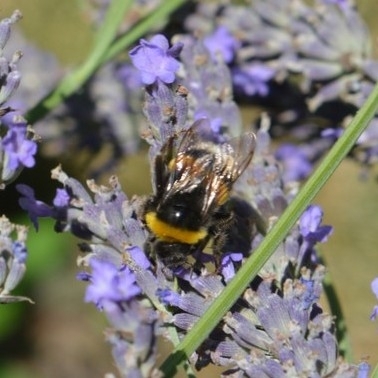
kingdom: Animalia
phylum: Arthropoda
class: Insecta
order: Hymenoptera
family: Apidae
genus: Bombus
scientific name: Bombus
